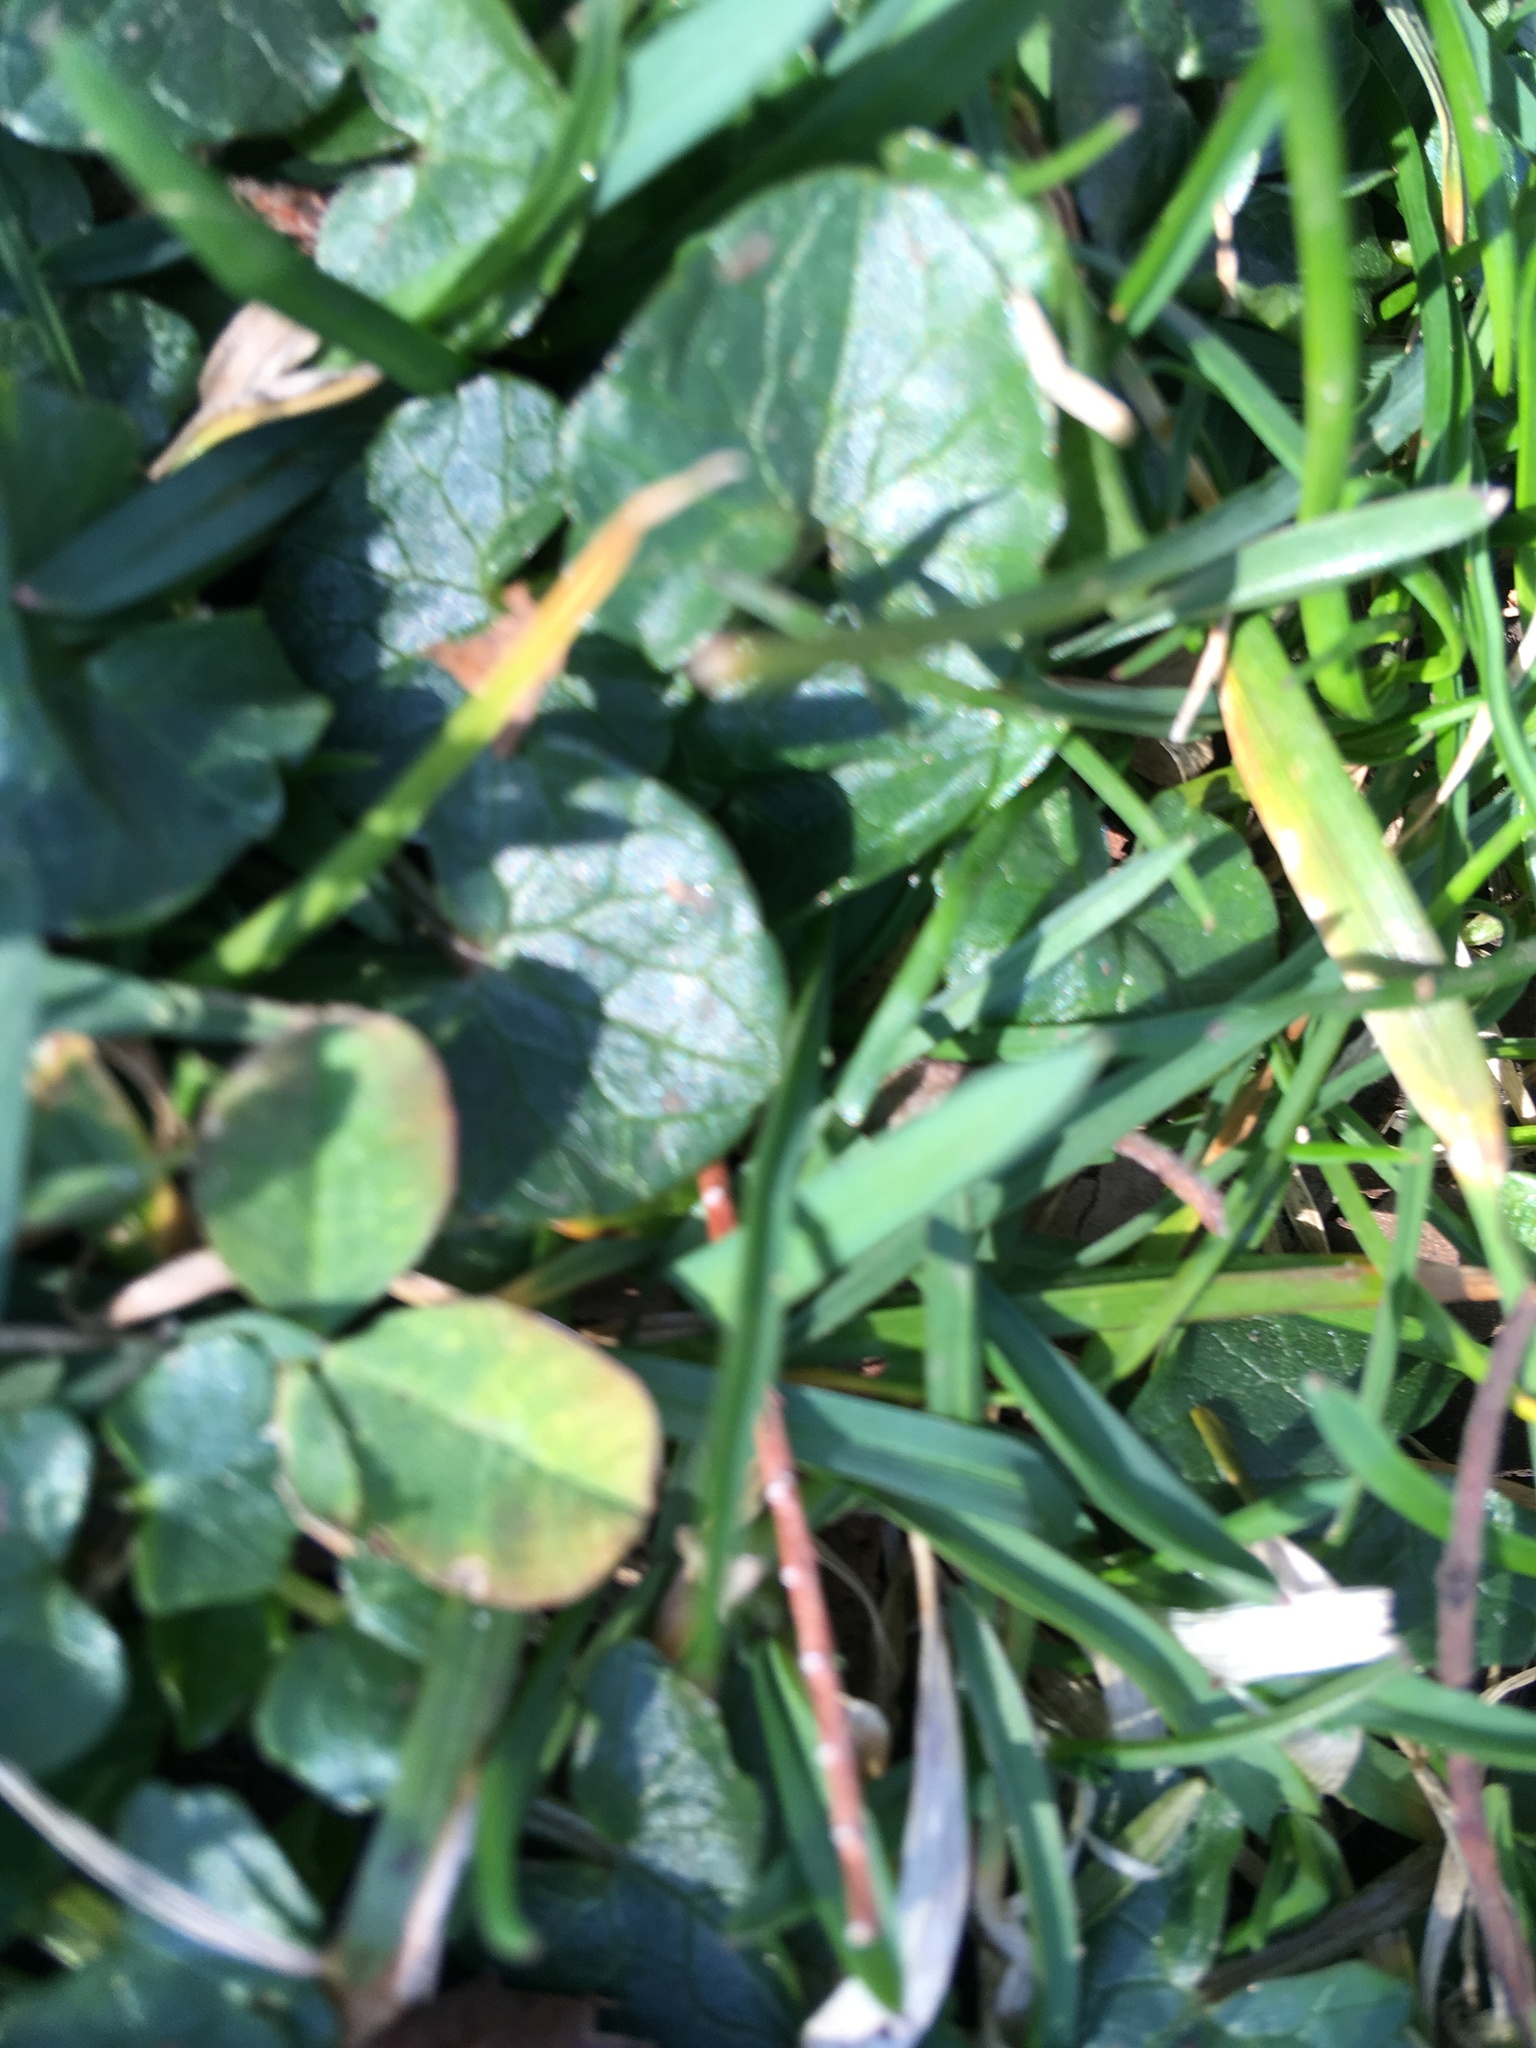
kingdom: Plantae
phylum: Tracheophyta
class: Magnoliopsida
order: Ranunculales
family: Ranunculaceae
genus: Ficaria
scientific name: Ficaria verna
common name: Lesser celandine
